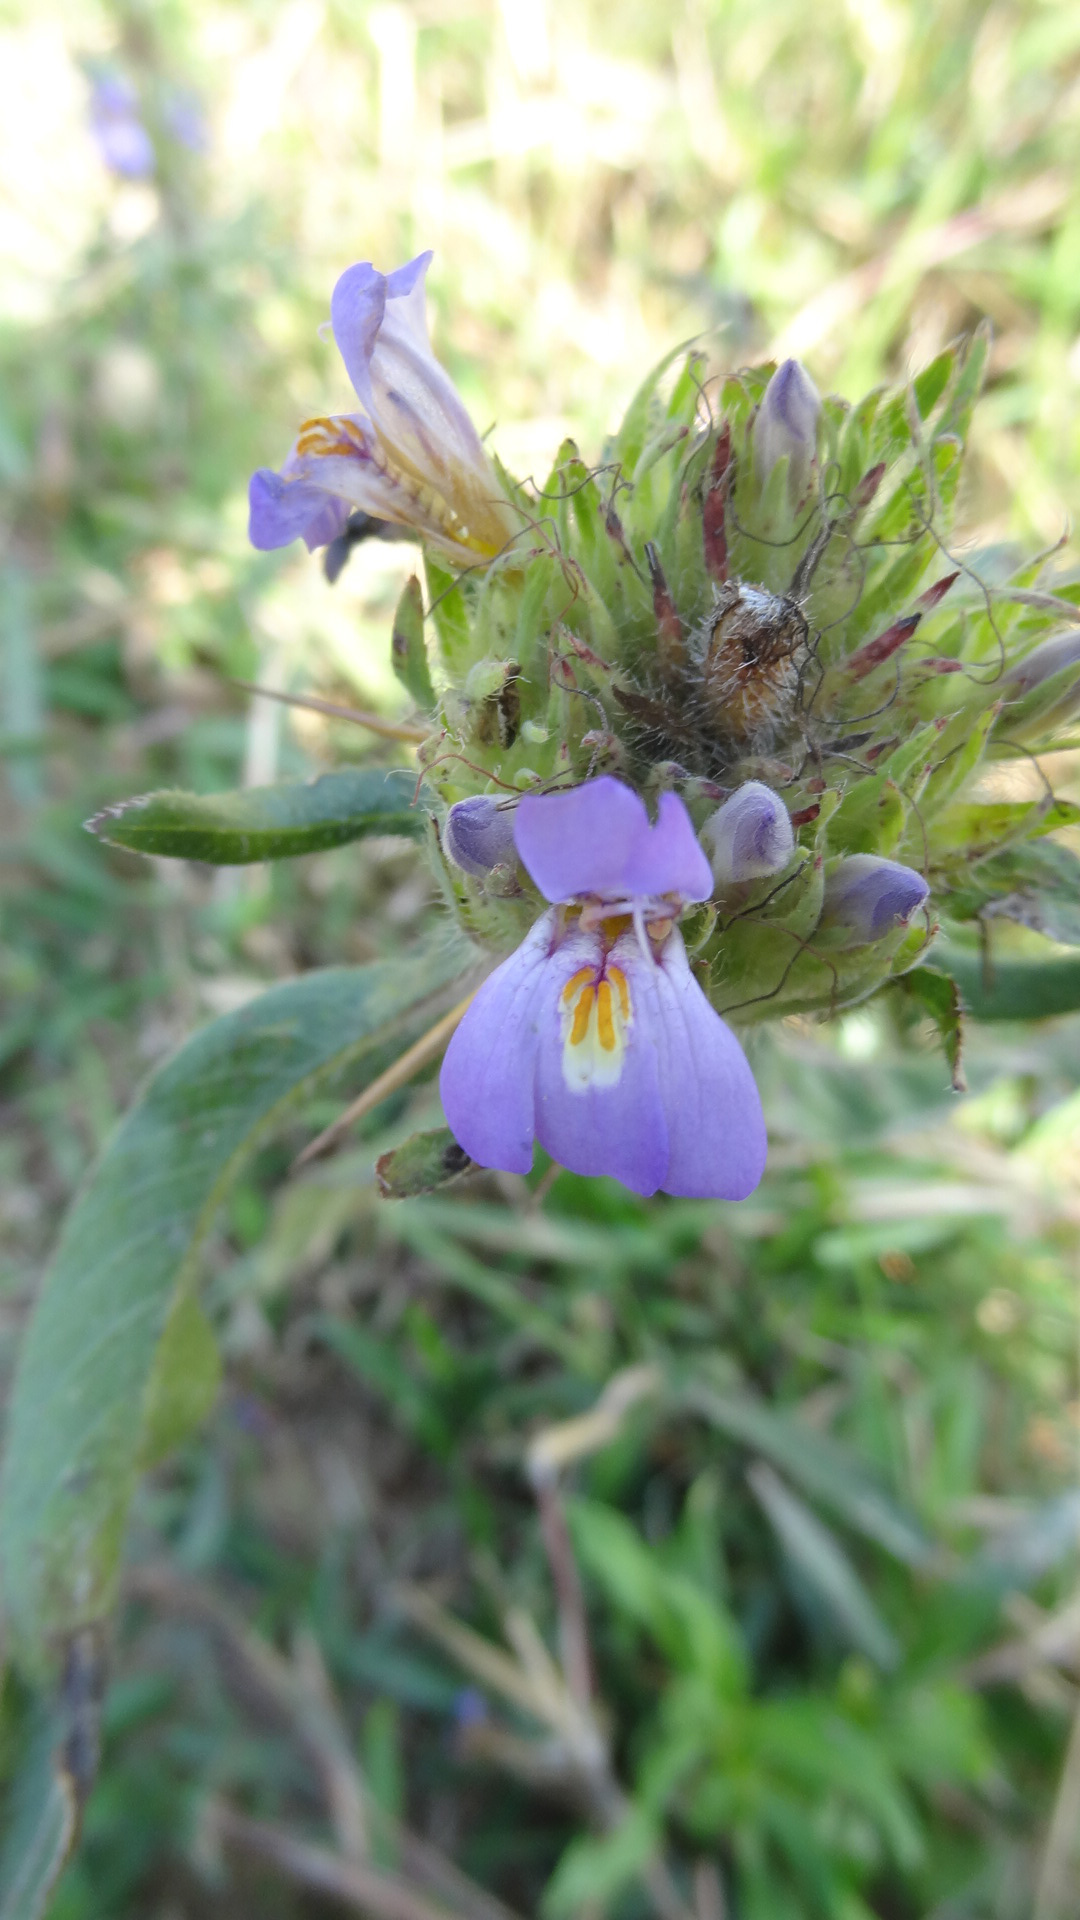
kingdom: Plantae
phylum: Tracheophyta
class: Magnoliopsida
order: Lamiales
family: Acanthaceae
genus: Hygrophila
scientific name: Hygrophila auriculata
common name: Hygrophila
